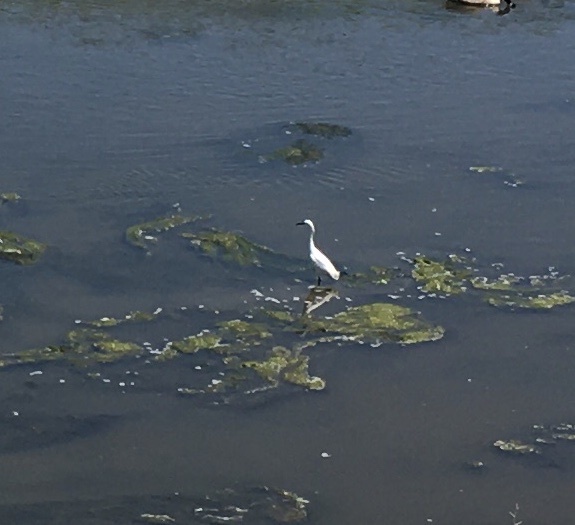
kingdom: Animalia
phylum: Chordata
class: Aves
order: Pelecaniformes
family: Ardeidae
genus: Egretta
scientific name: Egretta thula
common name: Snowy egret
